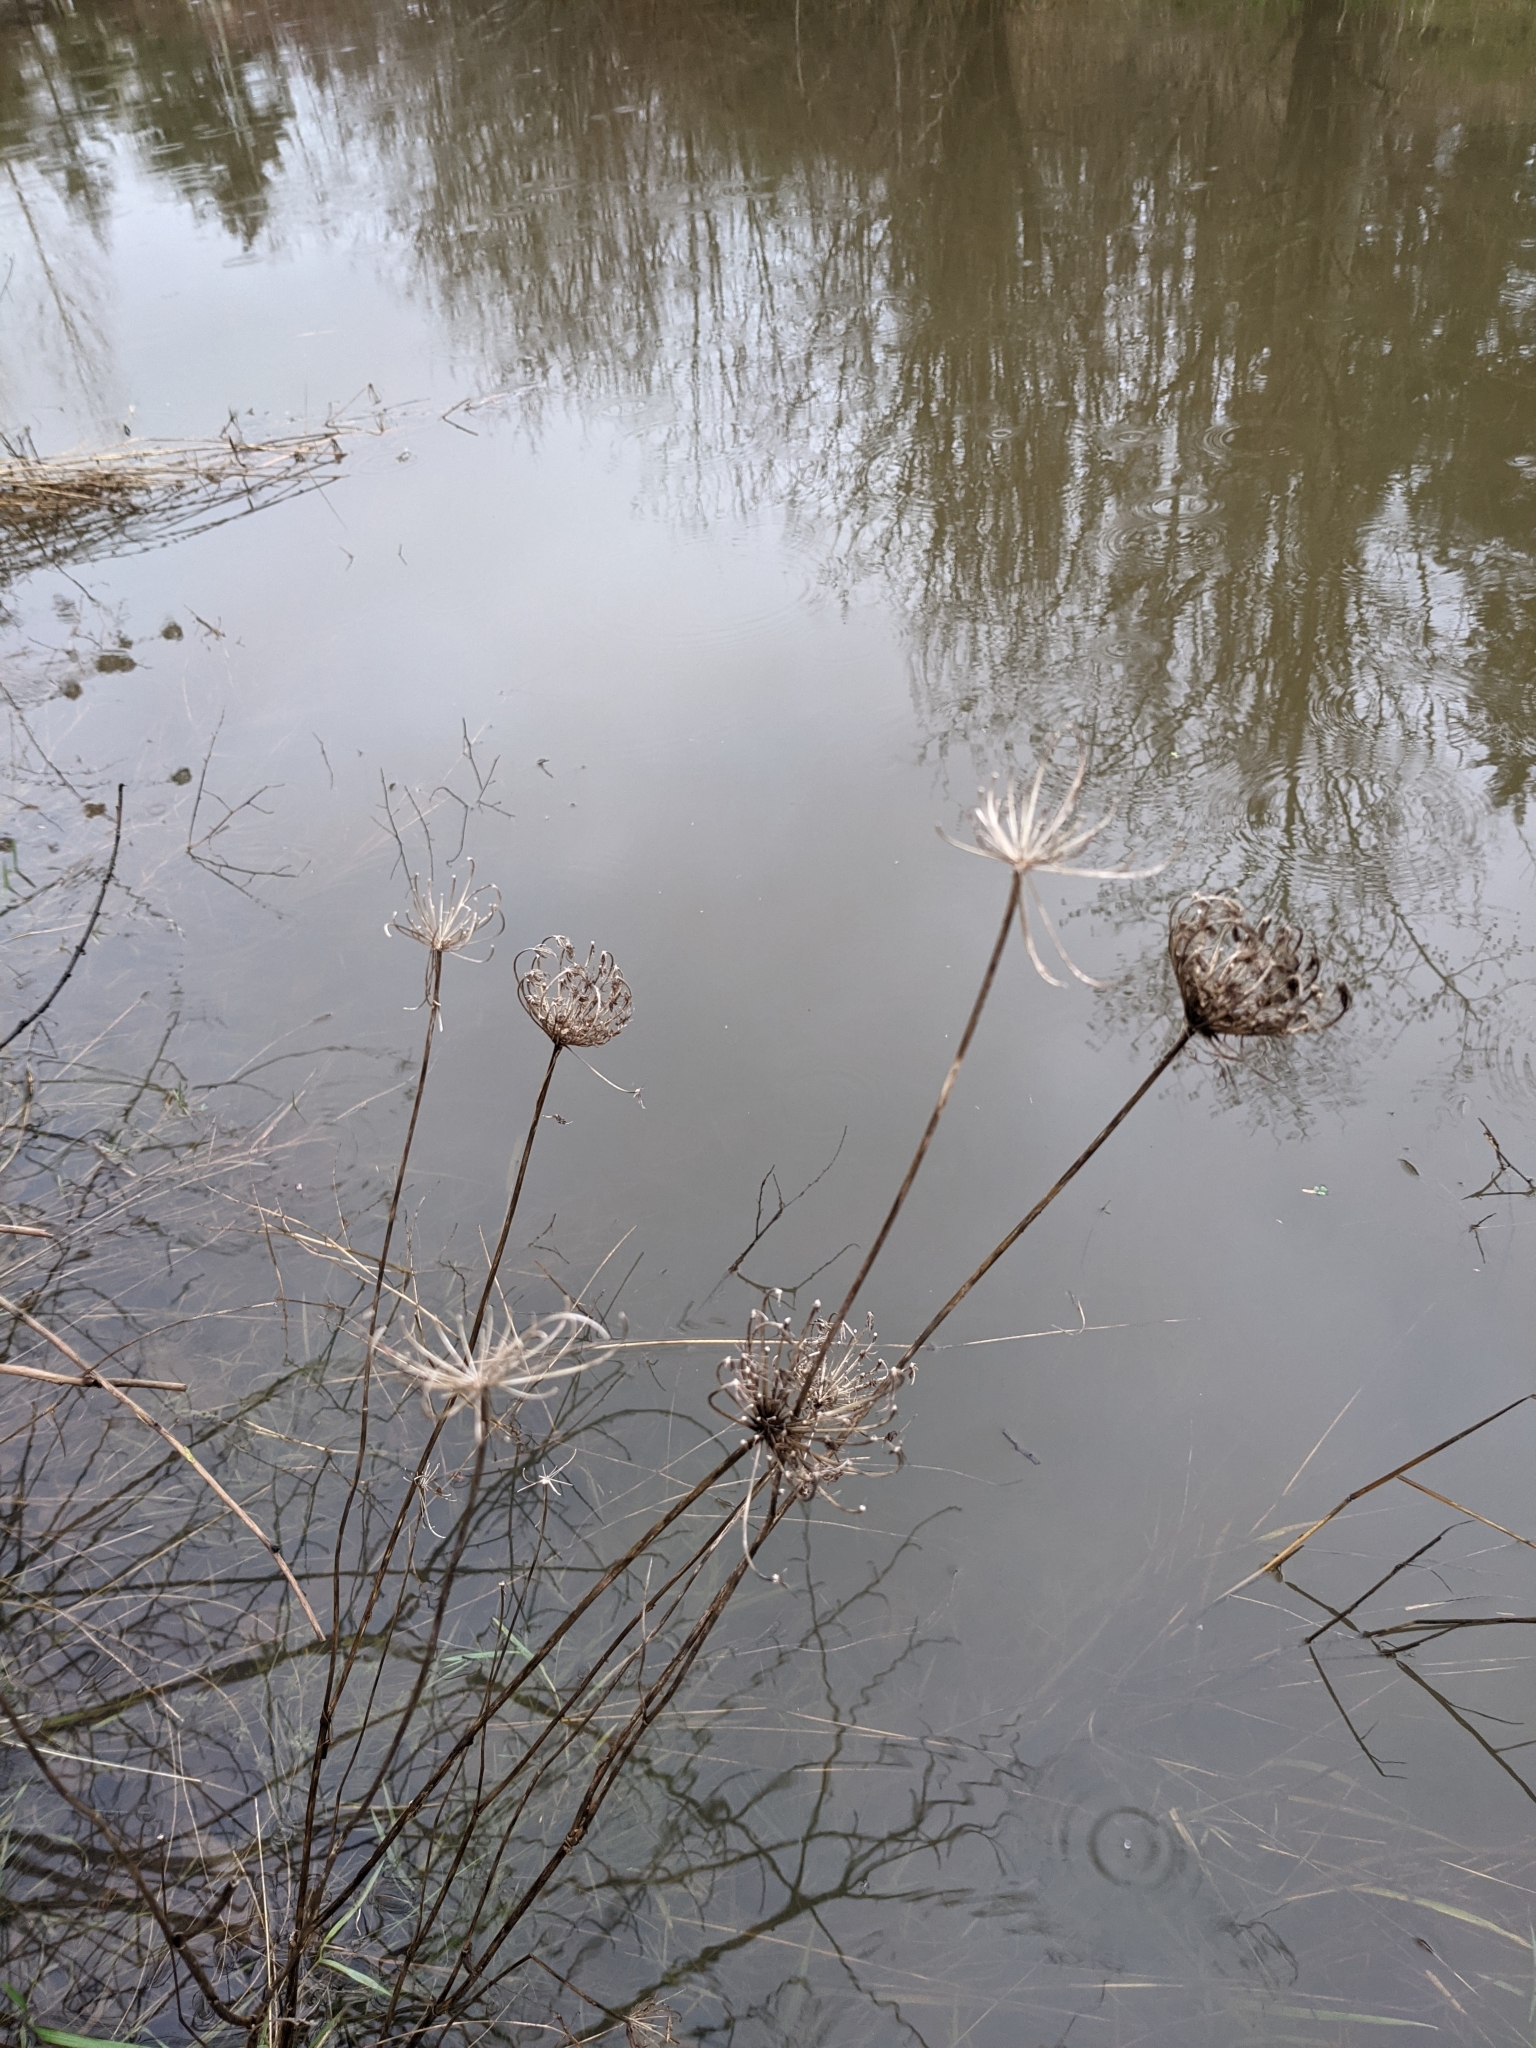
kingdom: Plantae
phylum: Tracheophyta
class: Magnoliopsida
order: Apiales
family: Apiaceae
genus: Daucus
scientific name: Daucus carota
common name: Wild carrot
